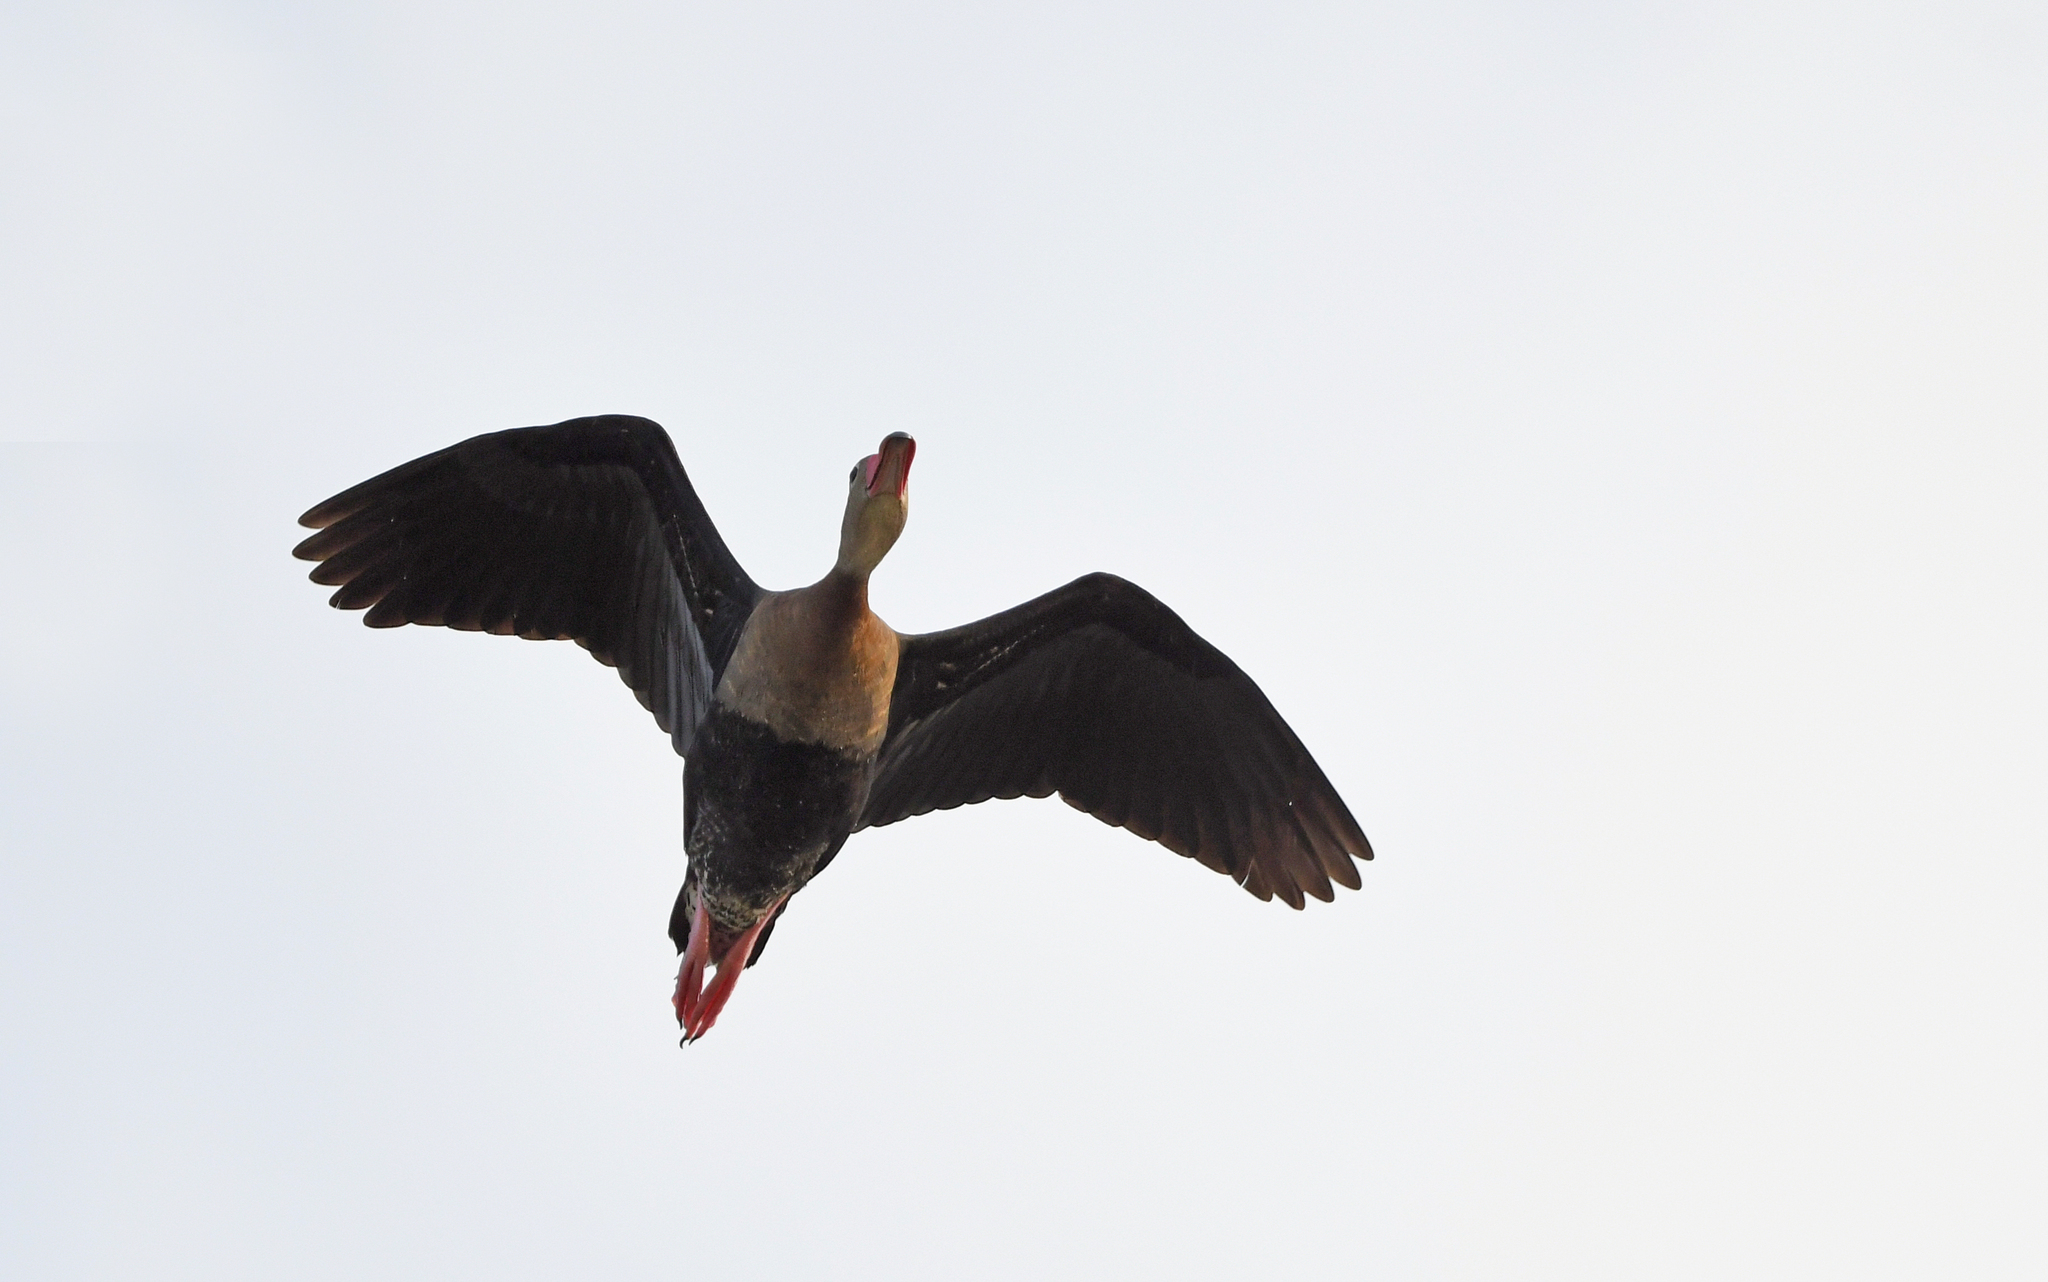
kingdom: Animalia
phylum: Chordata
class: Aves
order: Anseriformes
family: Anatidae
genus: Dendrocygna
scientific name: Dendrocygna autumnalis
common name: Black-bellied whistling duck
